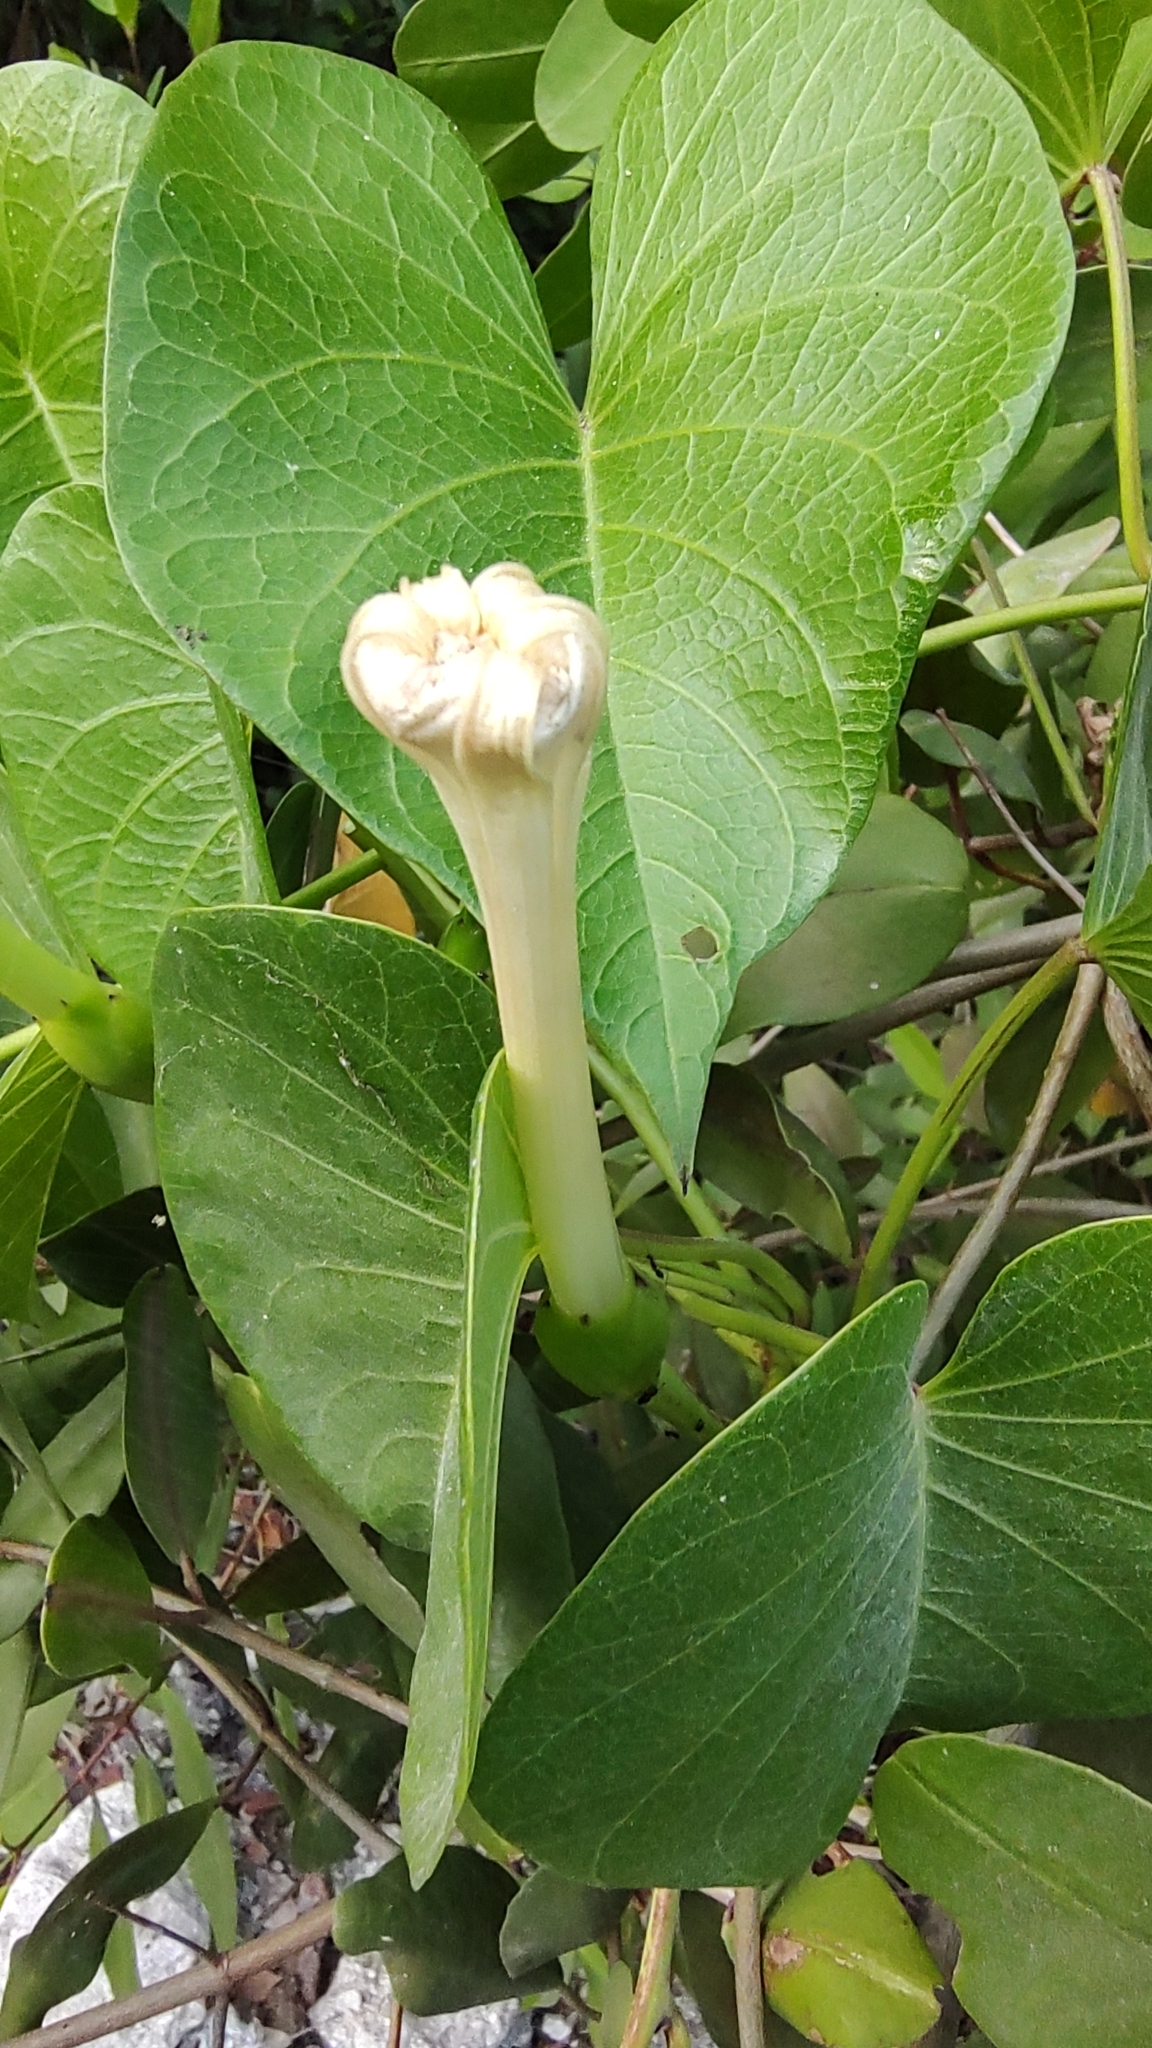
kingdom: Plantae
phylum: Tracheophyta
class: Magnoliopsida
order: Solanales
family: Convolvulaceae
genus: Ipomoea
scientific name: Ipomoea violacea
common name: Beach moonflower
